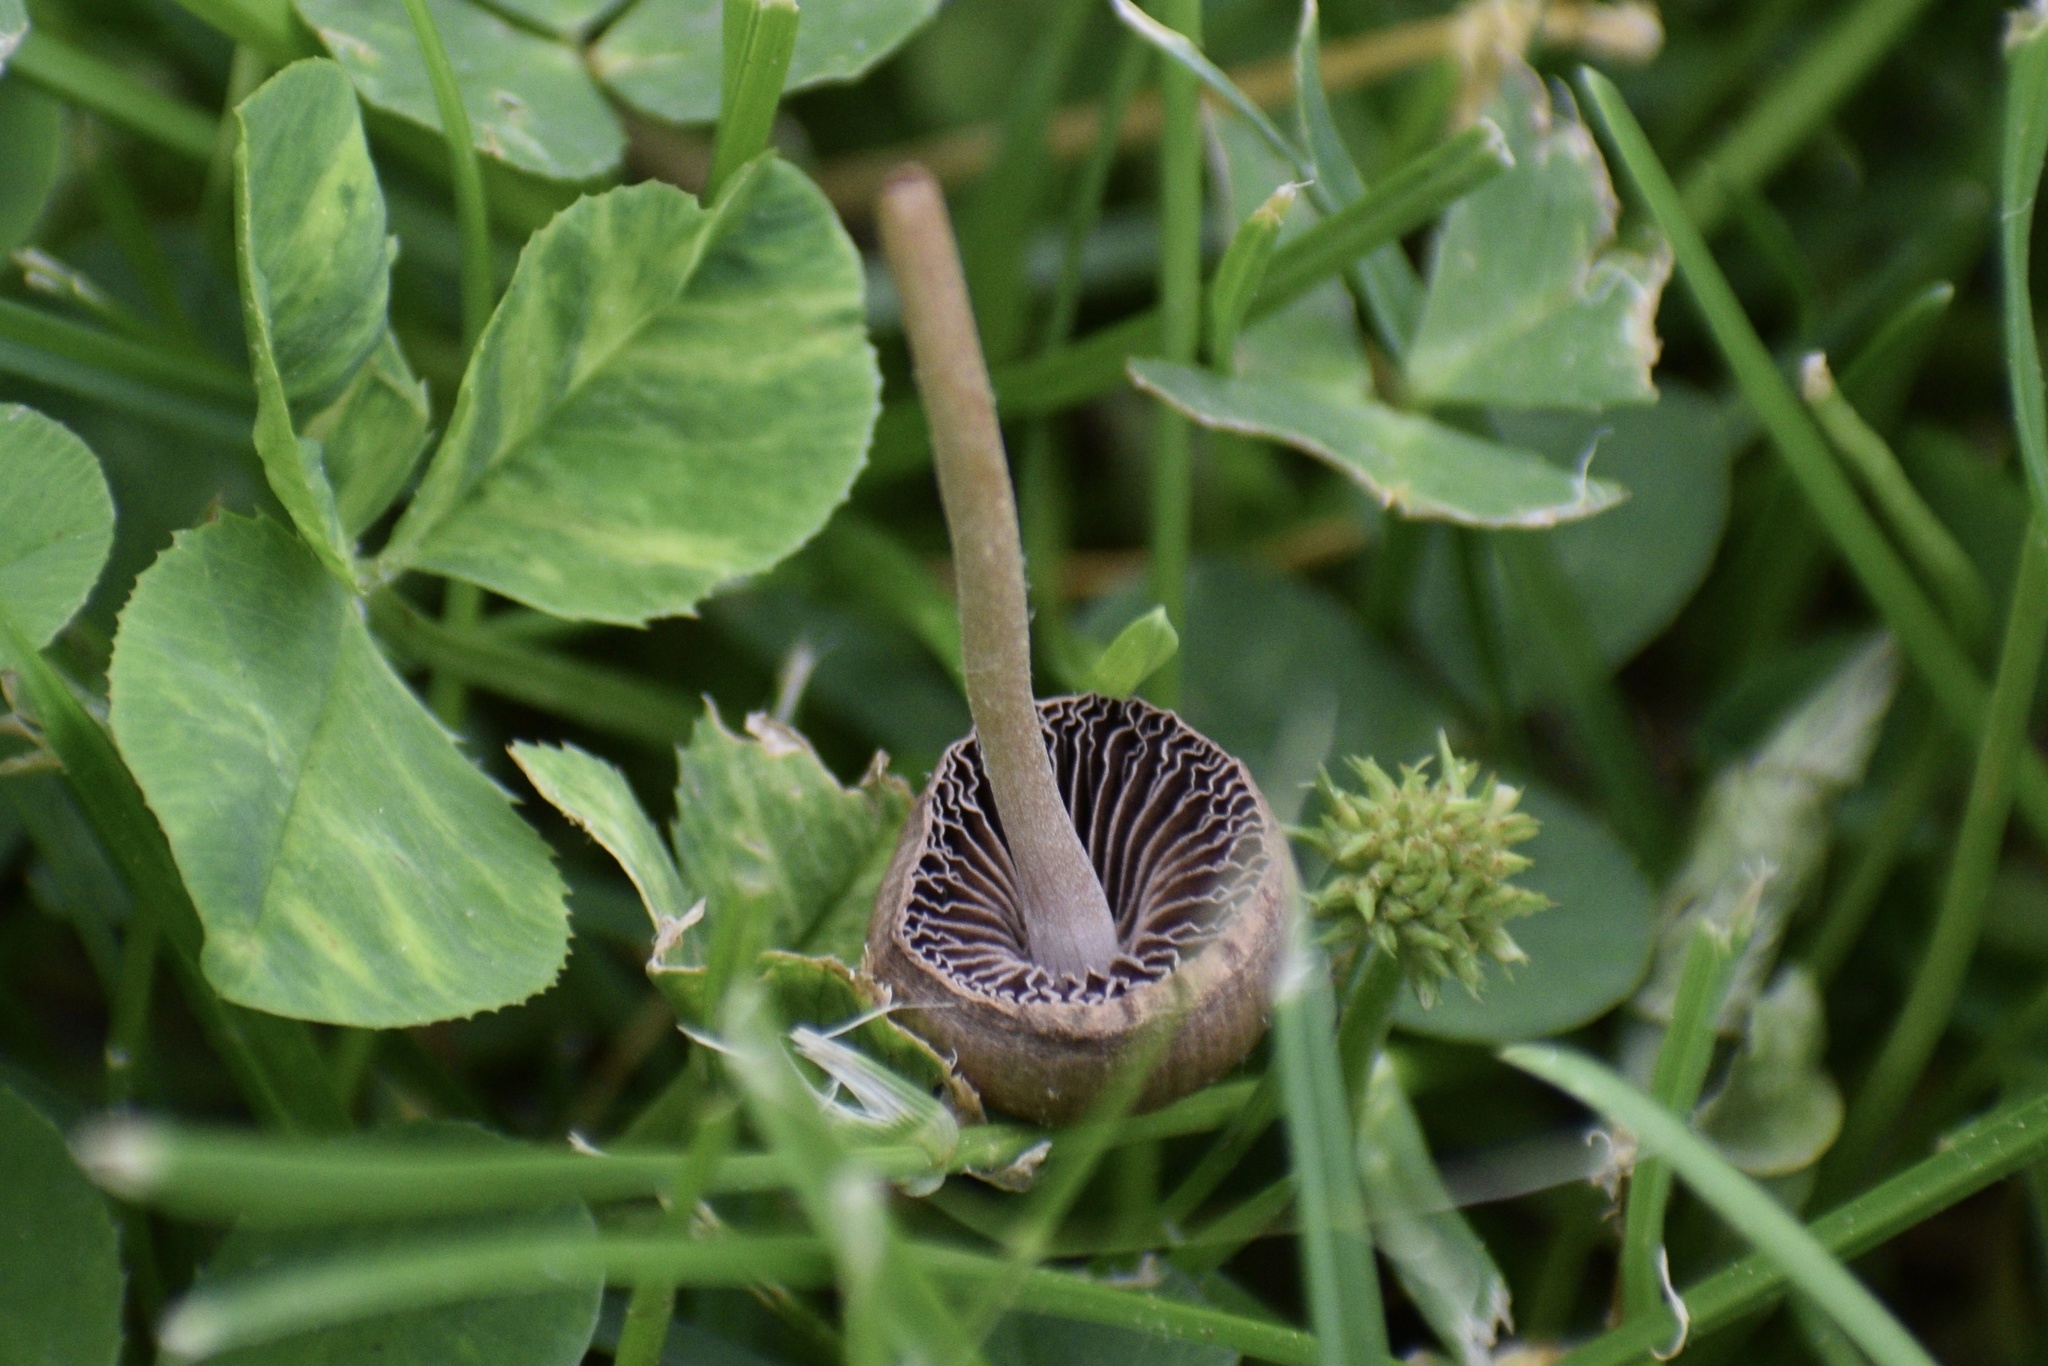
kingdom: Fungi
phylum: Basidiomycota
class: Agaricomycetes
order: Agaricales
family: Bolbitiaceae
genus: Panaeolina
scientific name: Panaeolina foenisecii
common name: Brown hay cap
